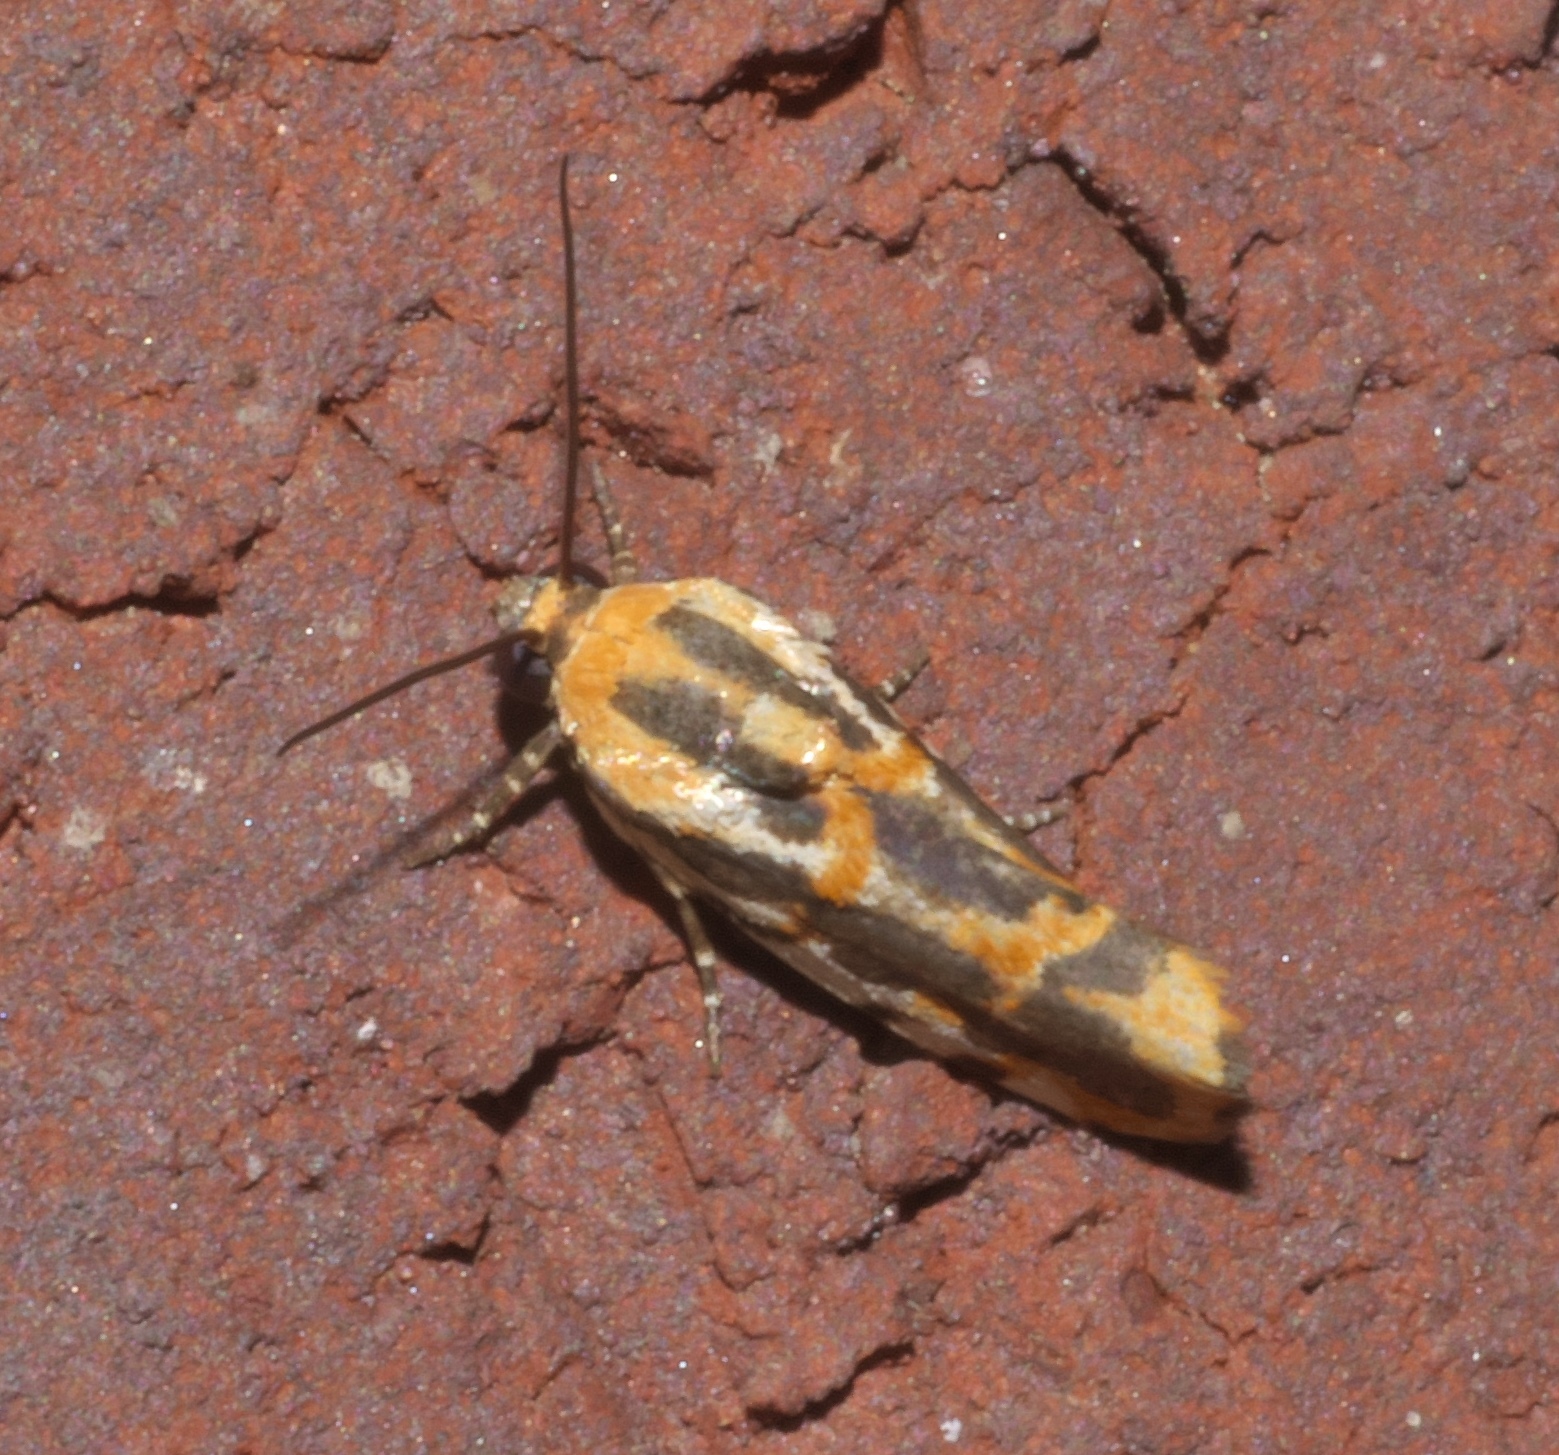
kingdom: Animalia
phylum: Arthropoda
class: Insecta
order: Lepidoptera
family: Noctuidae
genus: Acontia
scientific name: Acontia leo
